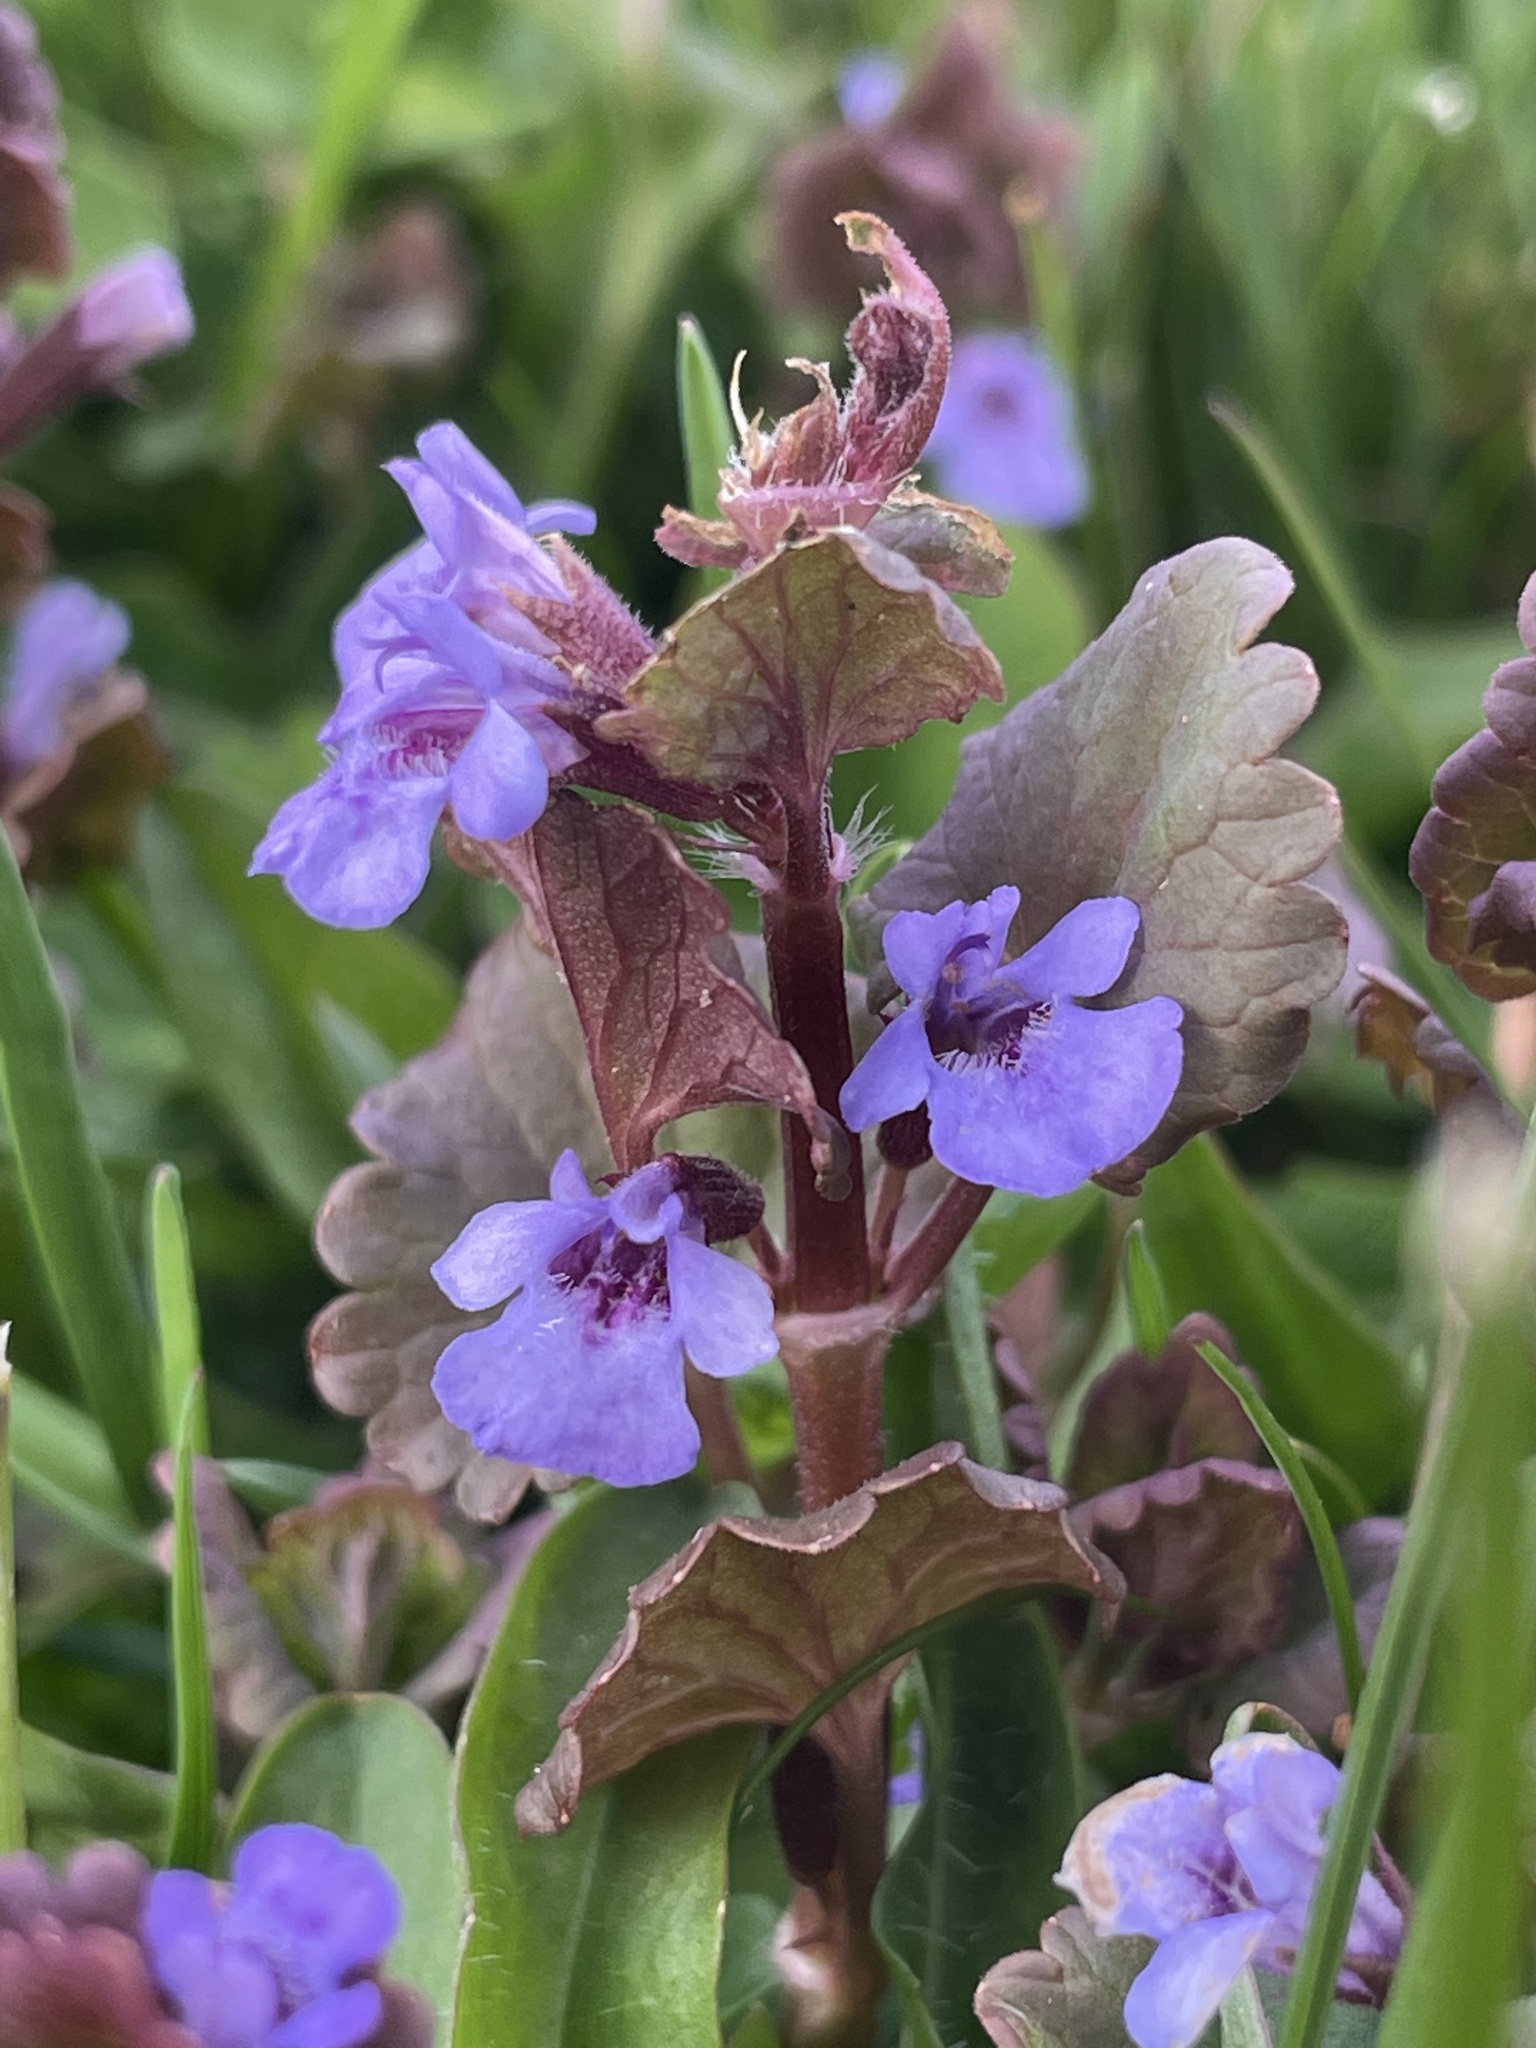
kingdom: Plantae
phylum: Tracheophyta
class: Magnoliopsida
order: Lamiales
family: Lamiaceae
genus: Glechoma
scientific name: Glechoma hederacea
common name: Ground ivy
